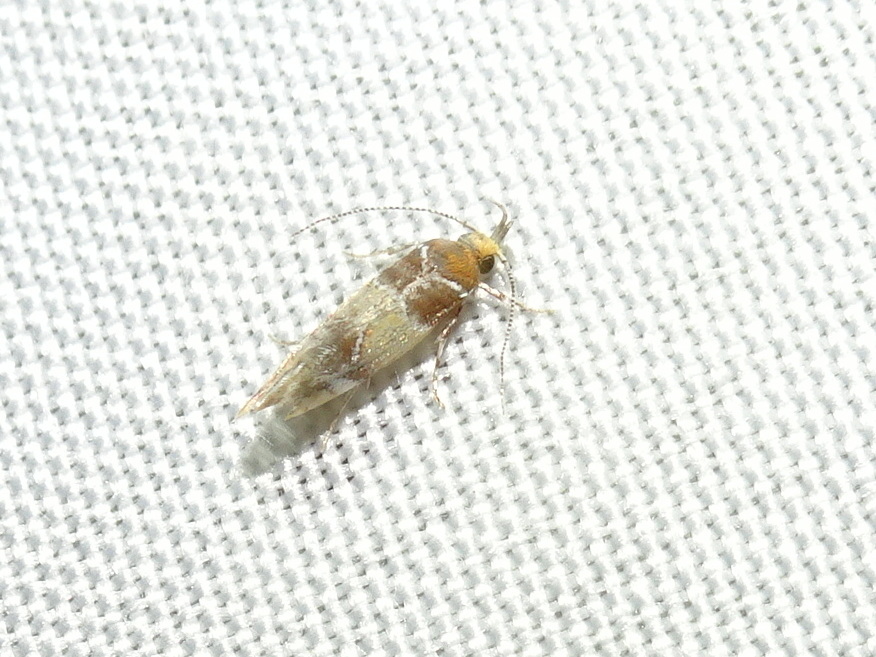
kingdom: Animalia
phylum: Arthropoda
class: Insecta
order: Lepidoptera
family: Oecophoridae
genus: Callima
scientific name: Callima argenticinctella
